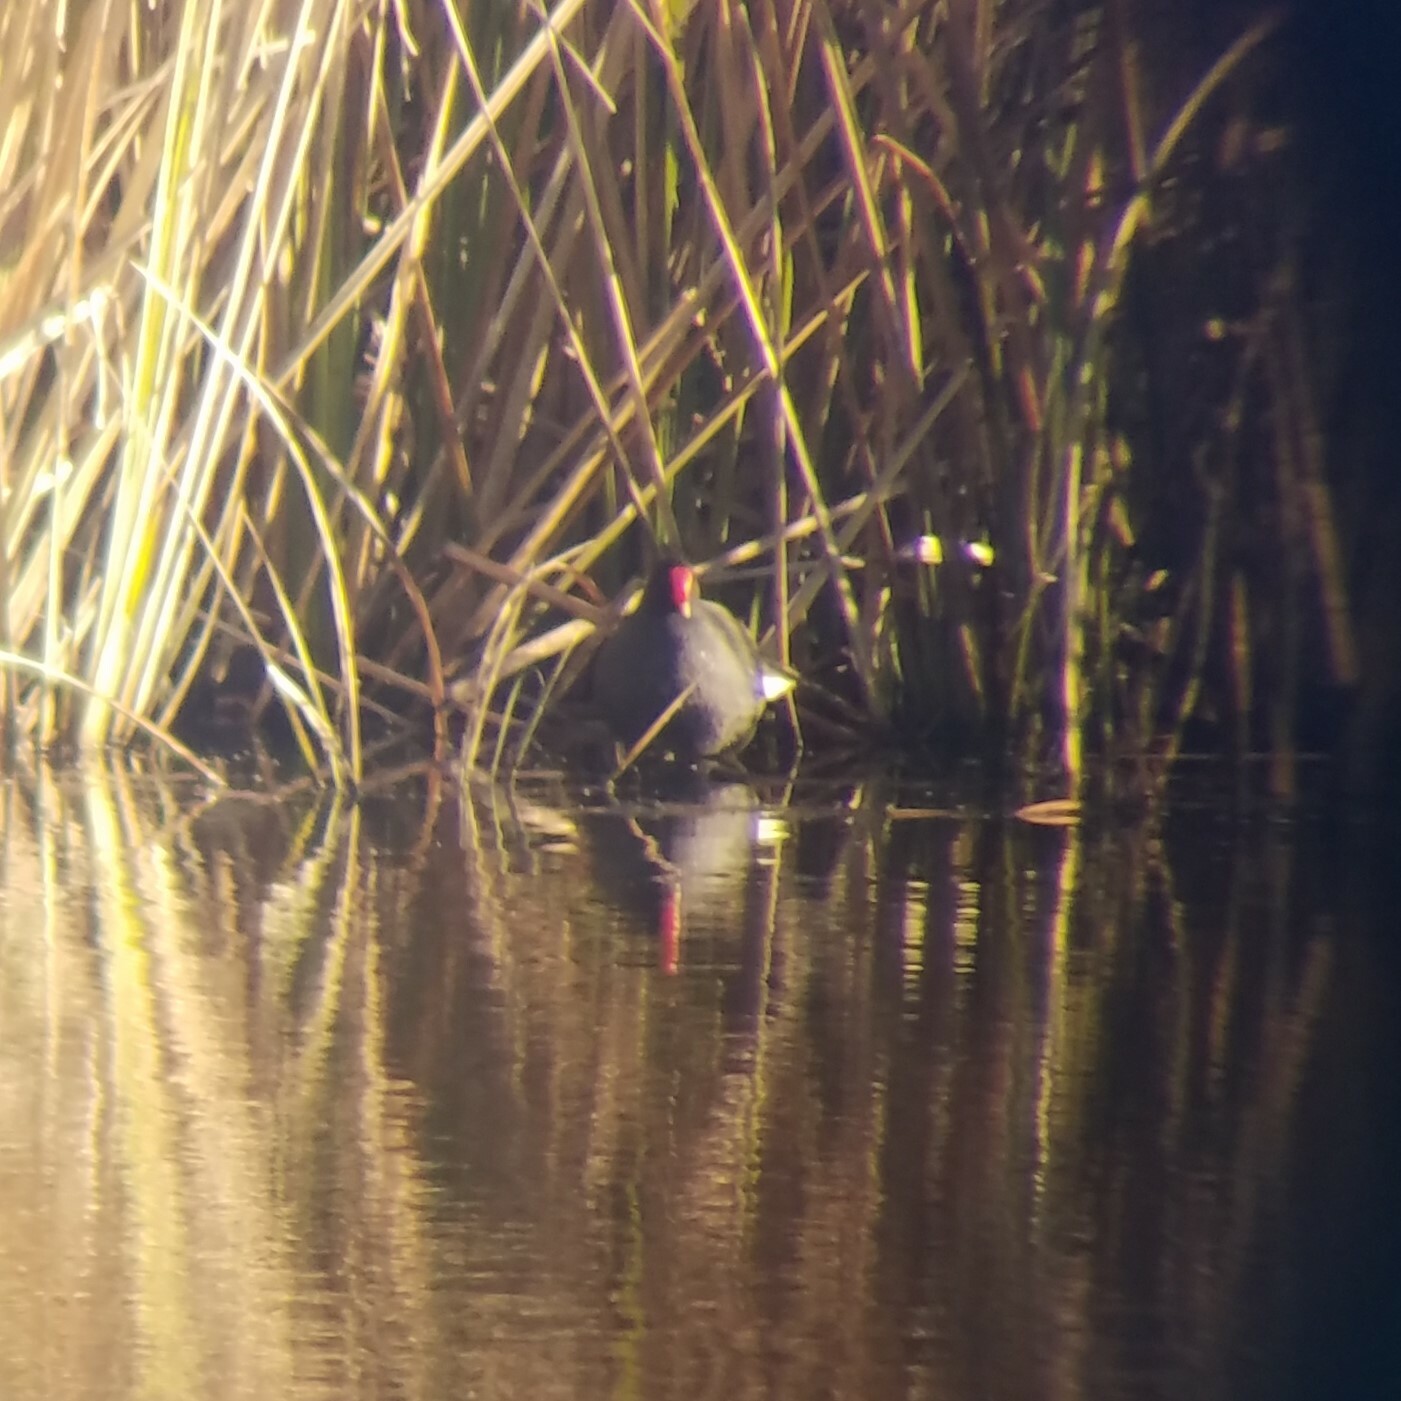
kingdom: Animalia
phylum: Chordata
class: Aves
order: Gruiformes
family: Rallidae
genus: Gallinula
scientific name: Gallinula chloropus
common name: Common moorhen
